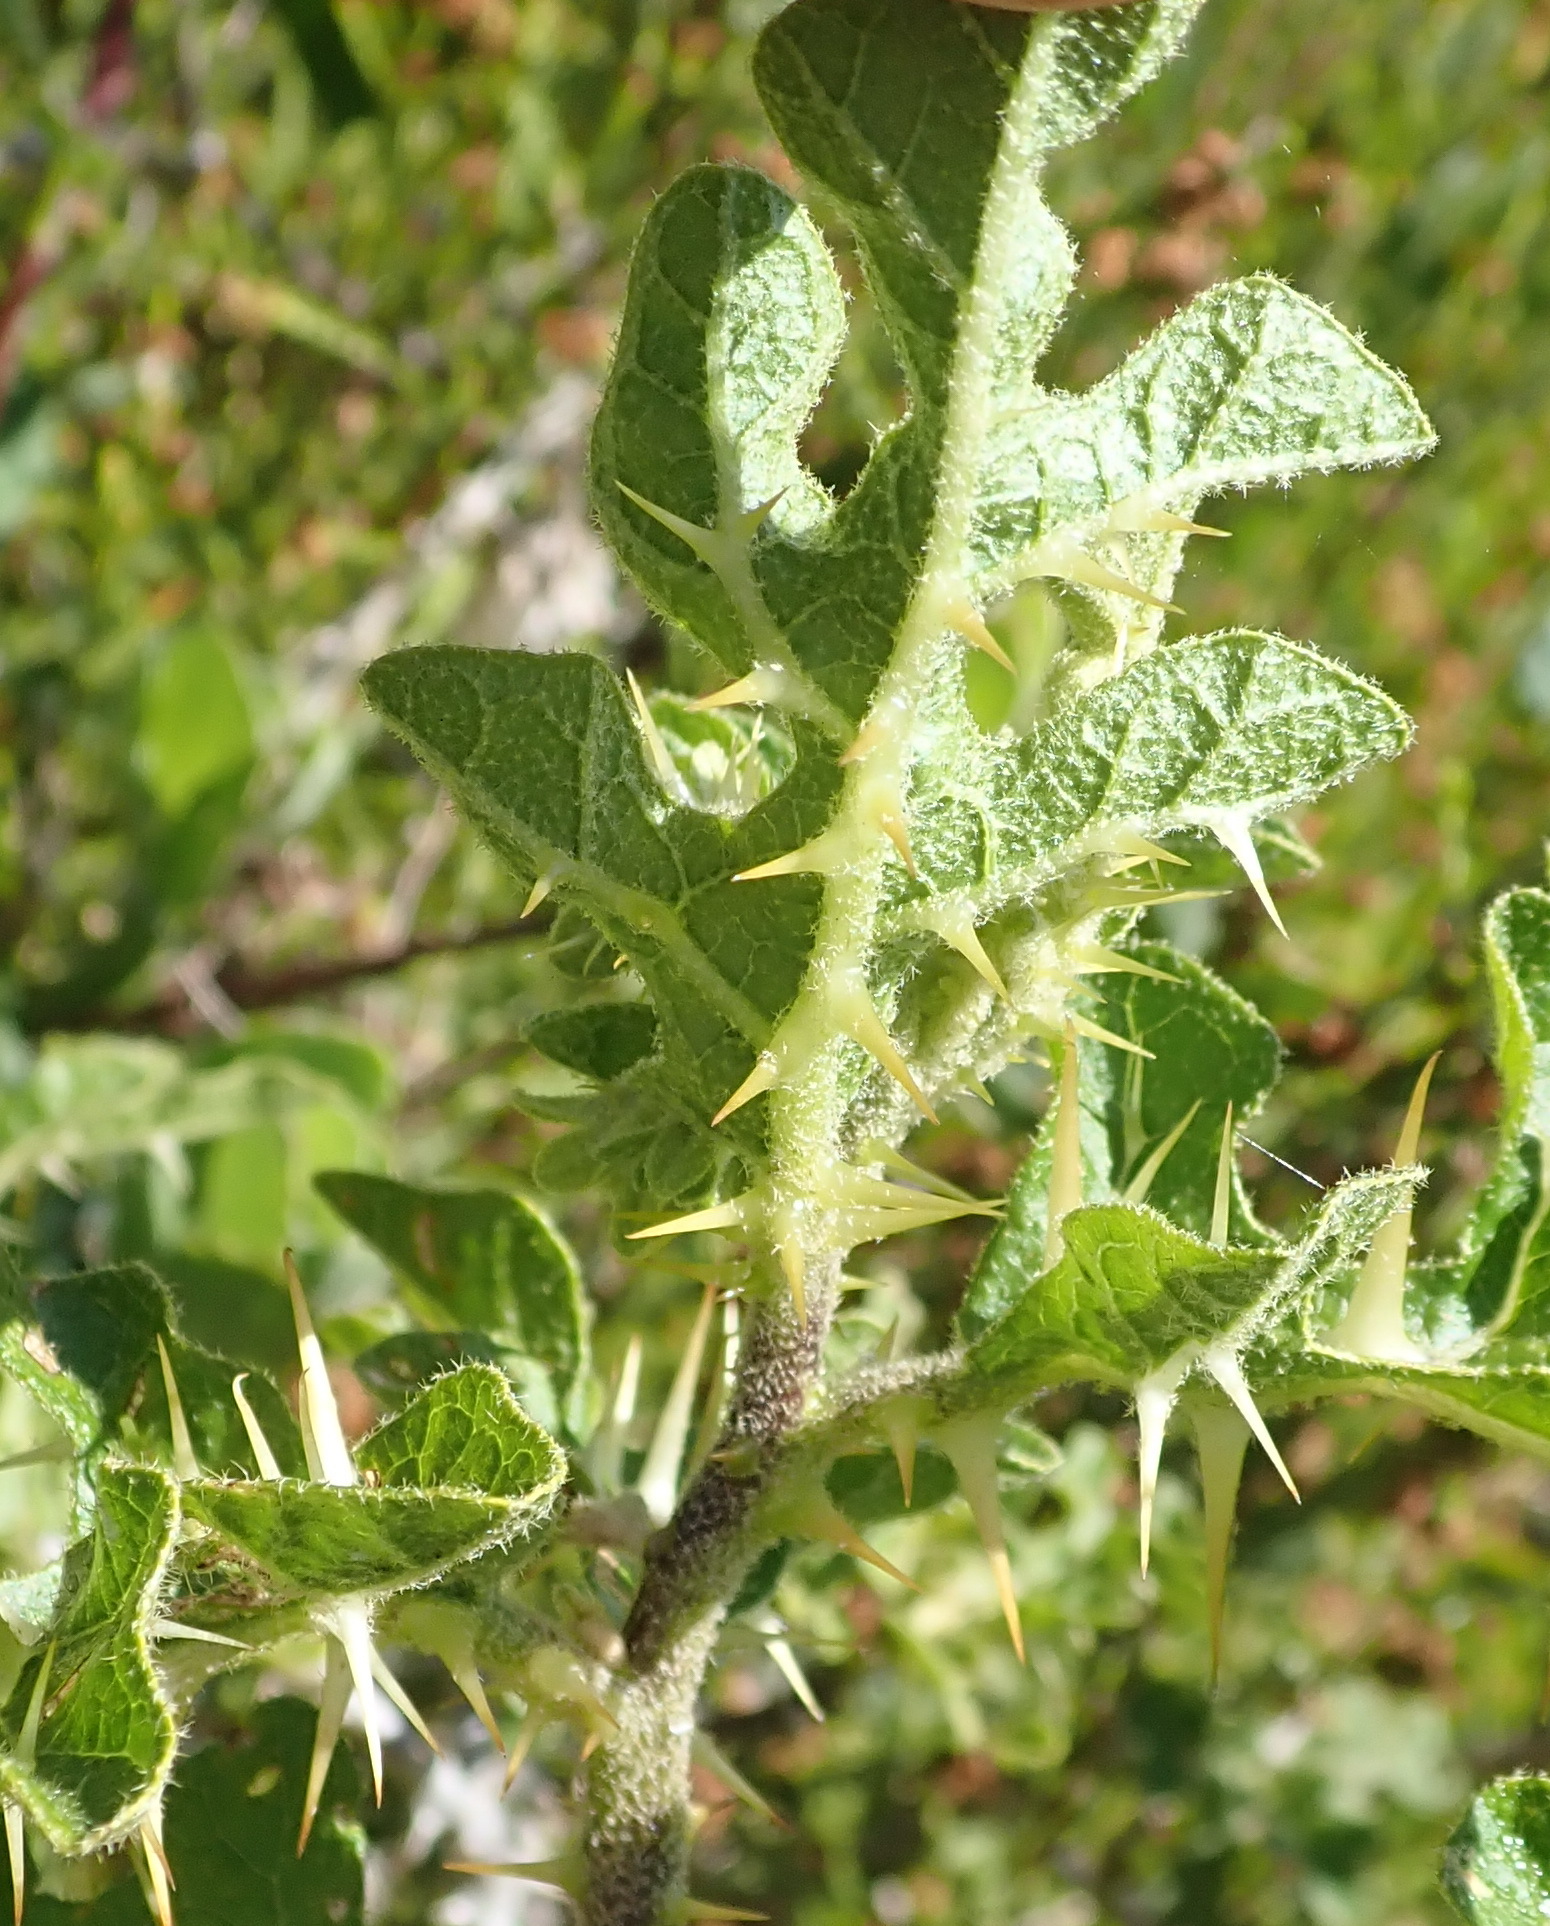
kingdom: Plantae
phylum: Tracheophyta
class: Magnoliopsida
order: Solanales
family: Solanaceae
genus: Solanum
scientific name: Solanum linnaeanum
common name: Nightshade
